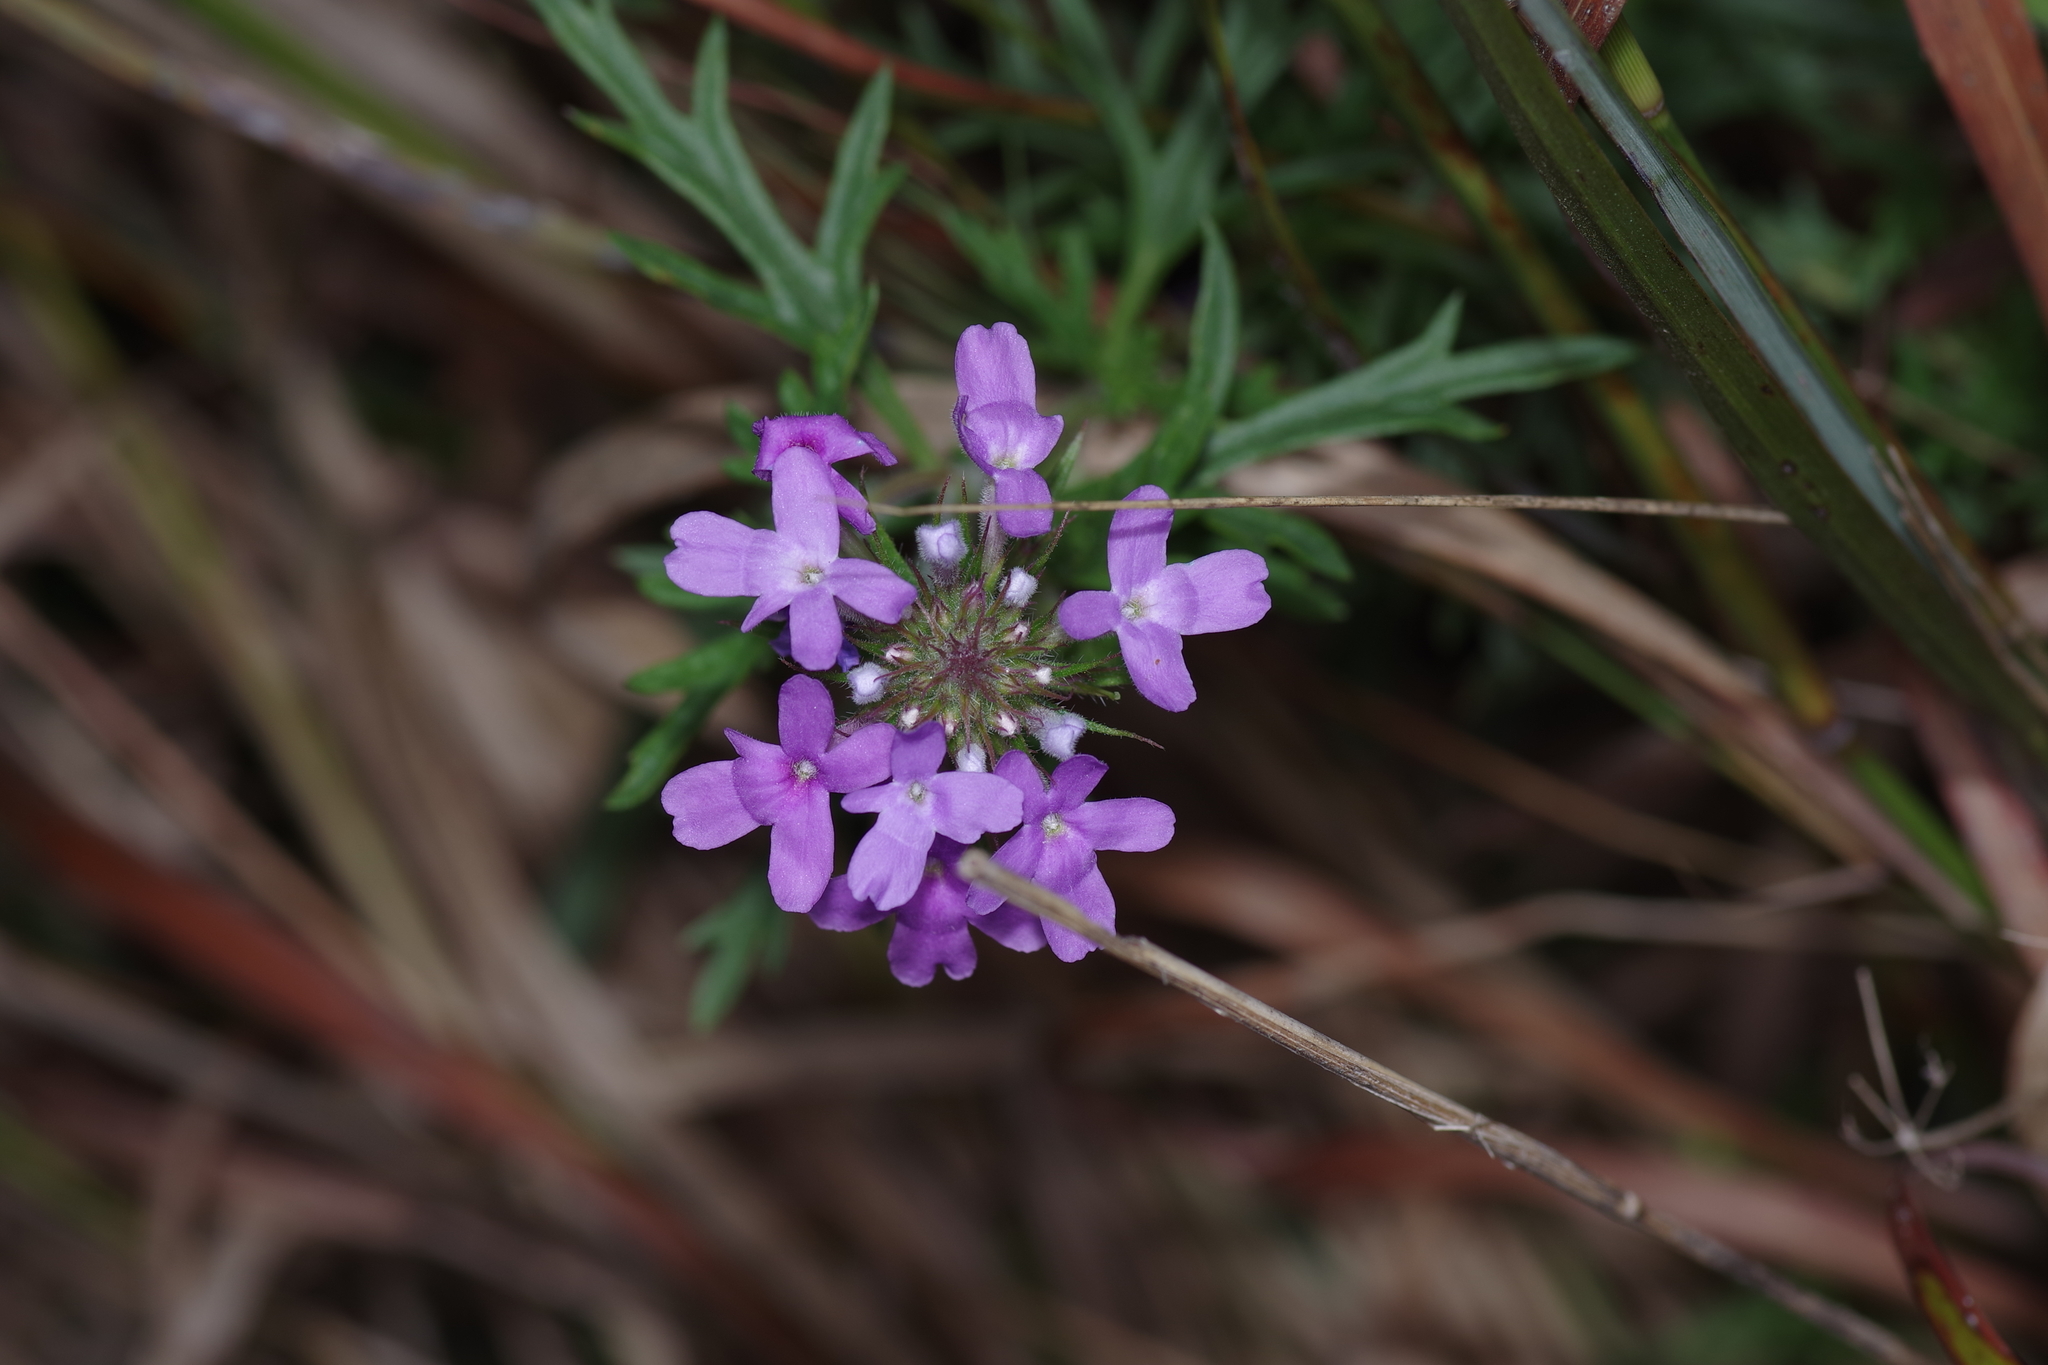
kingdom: Plantae
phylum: Tracheophyta
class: Magnoliopsida
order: Lamiales
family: Verbenaceae
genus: Verbena
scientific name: Verbena bipinnatifida
